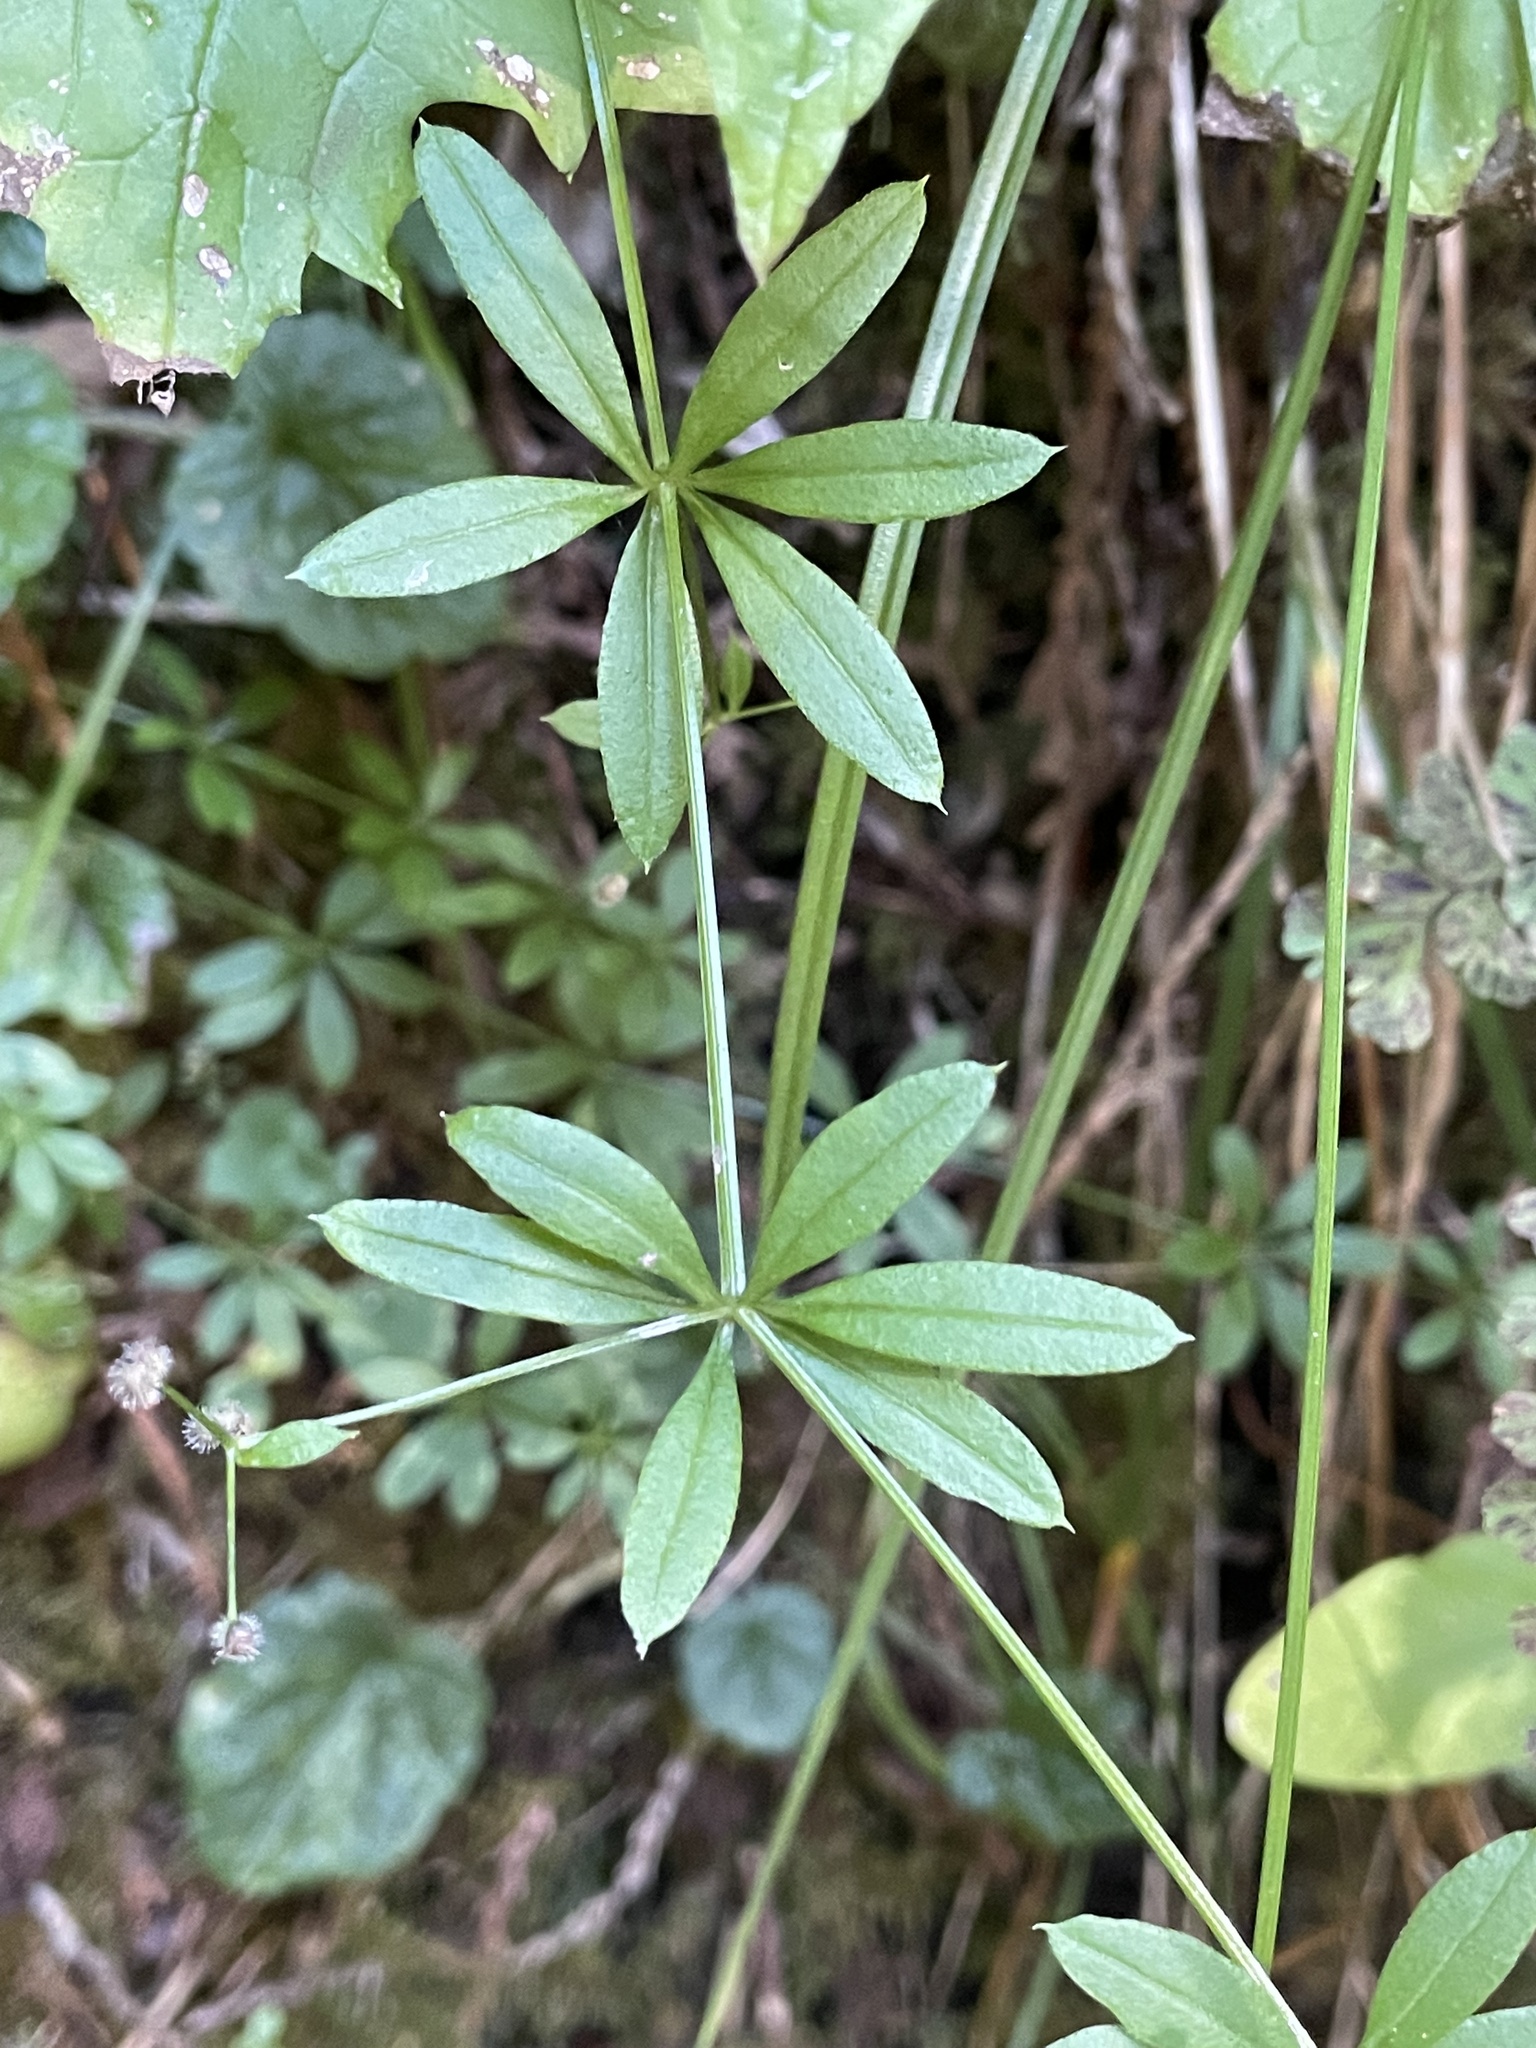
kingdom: Plantae
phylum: Tracheophyta
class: Magnoliopsida
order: Gentianales
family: Rubiaceae
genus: Galium
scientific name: Galium triflorum
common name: Fragrant bedstraw
